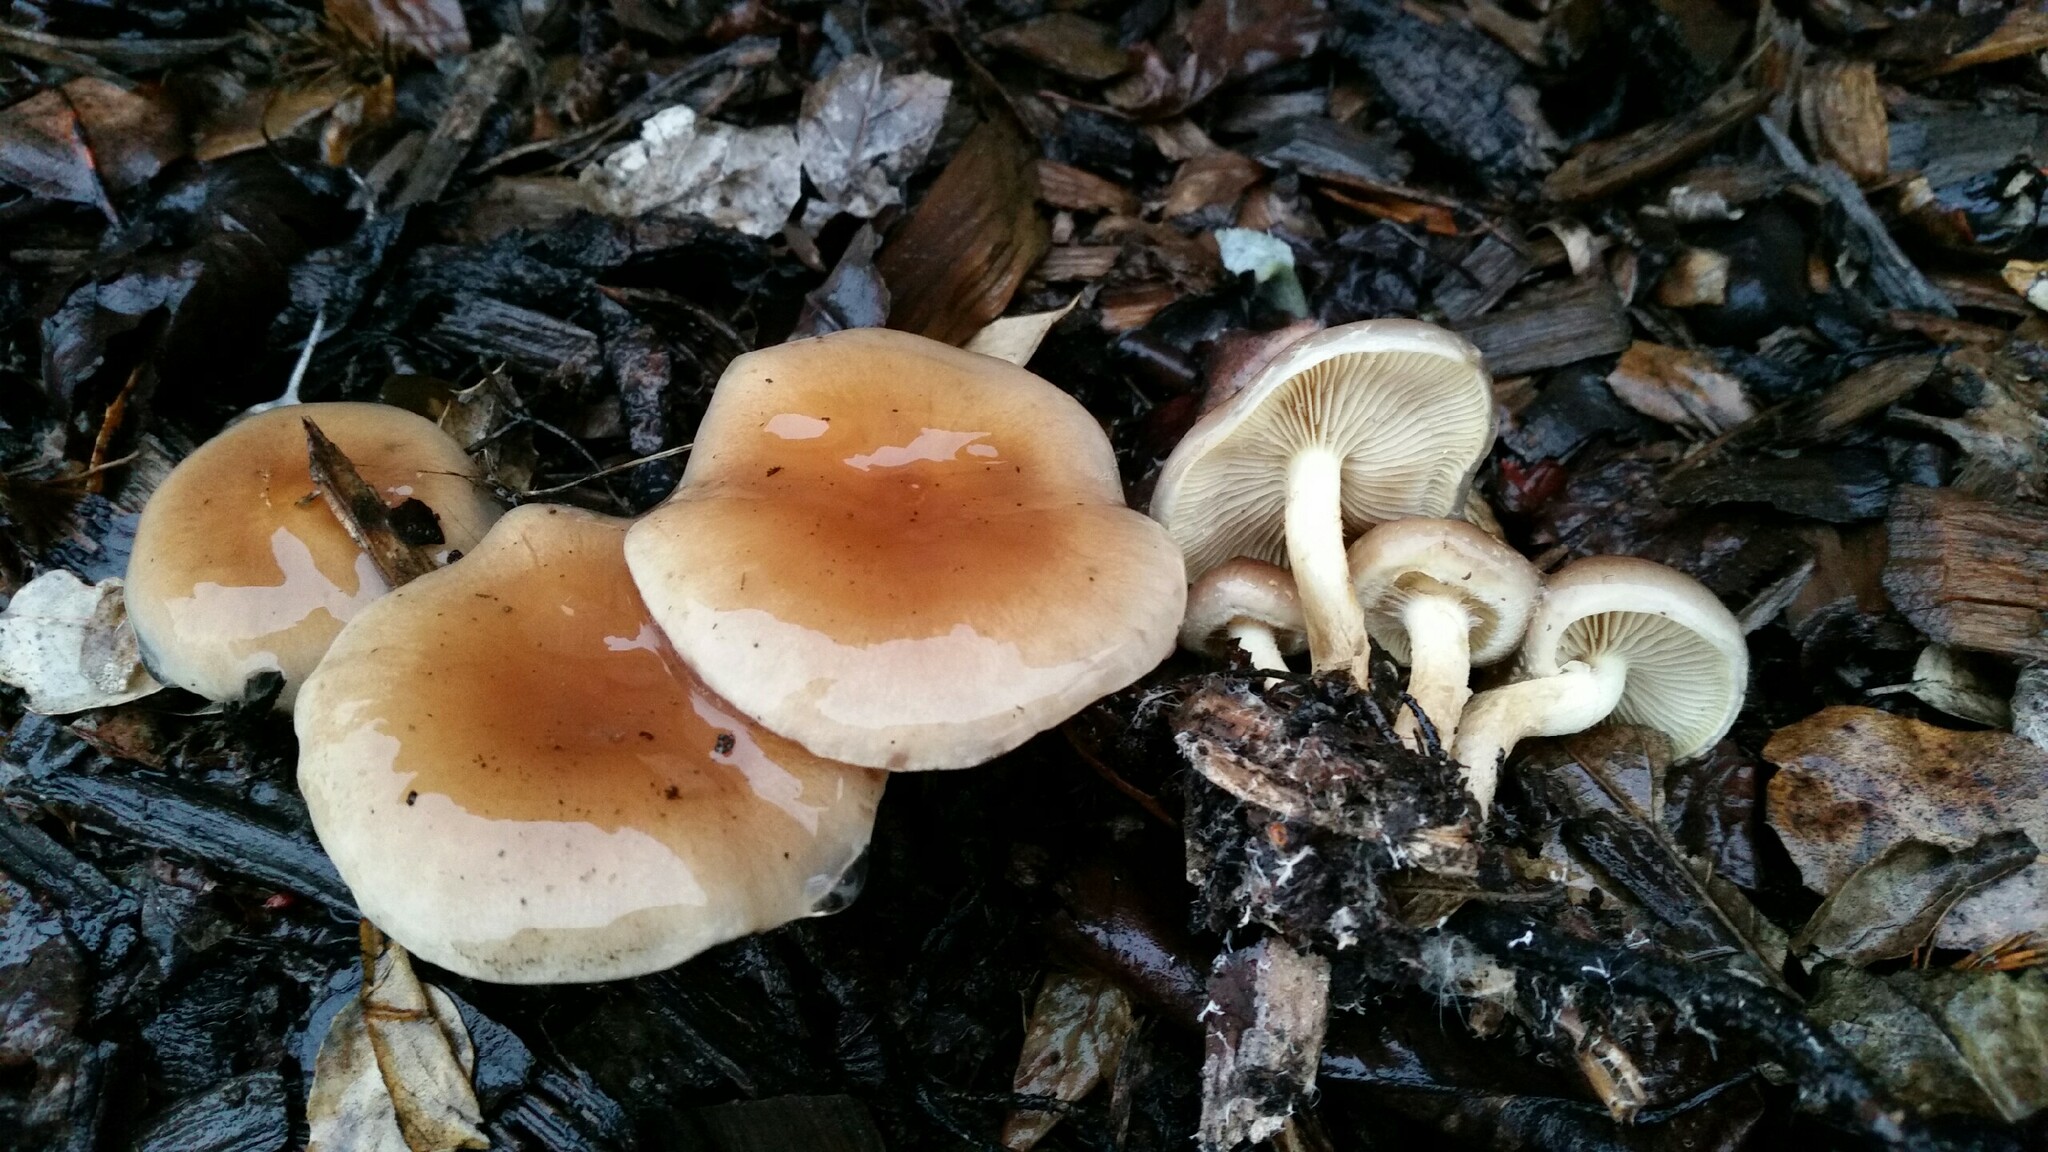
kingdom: Fungi
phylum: Basidiomycota
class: Agaricomycetes
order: Agaricales
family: Strophariaceae
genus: Pholiota
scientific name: Pholiota spumosa
